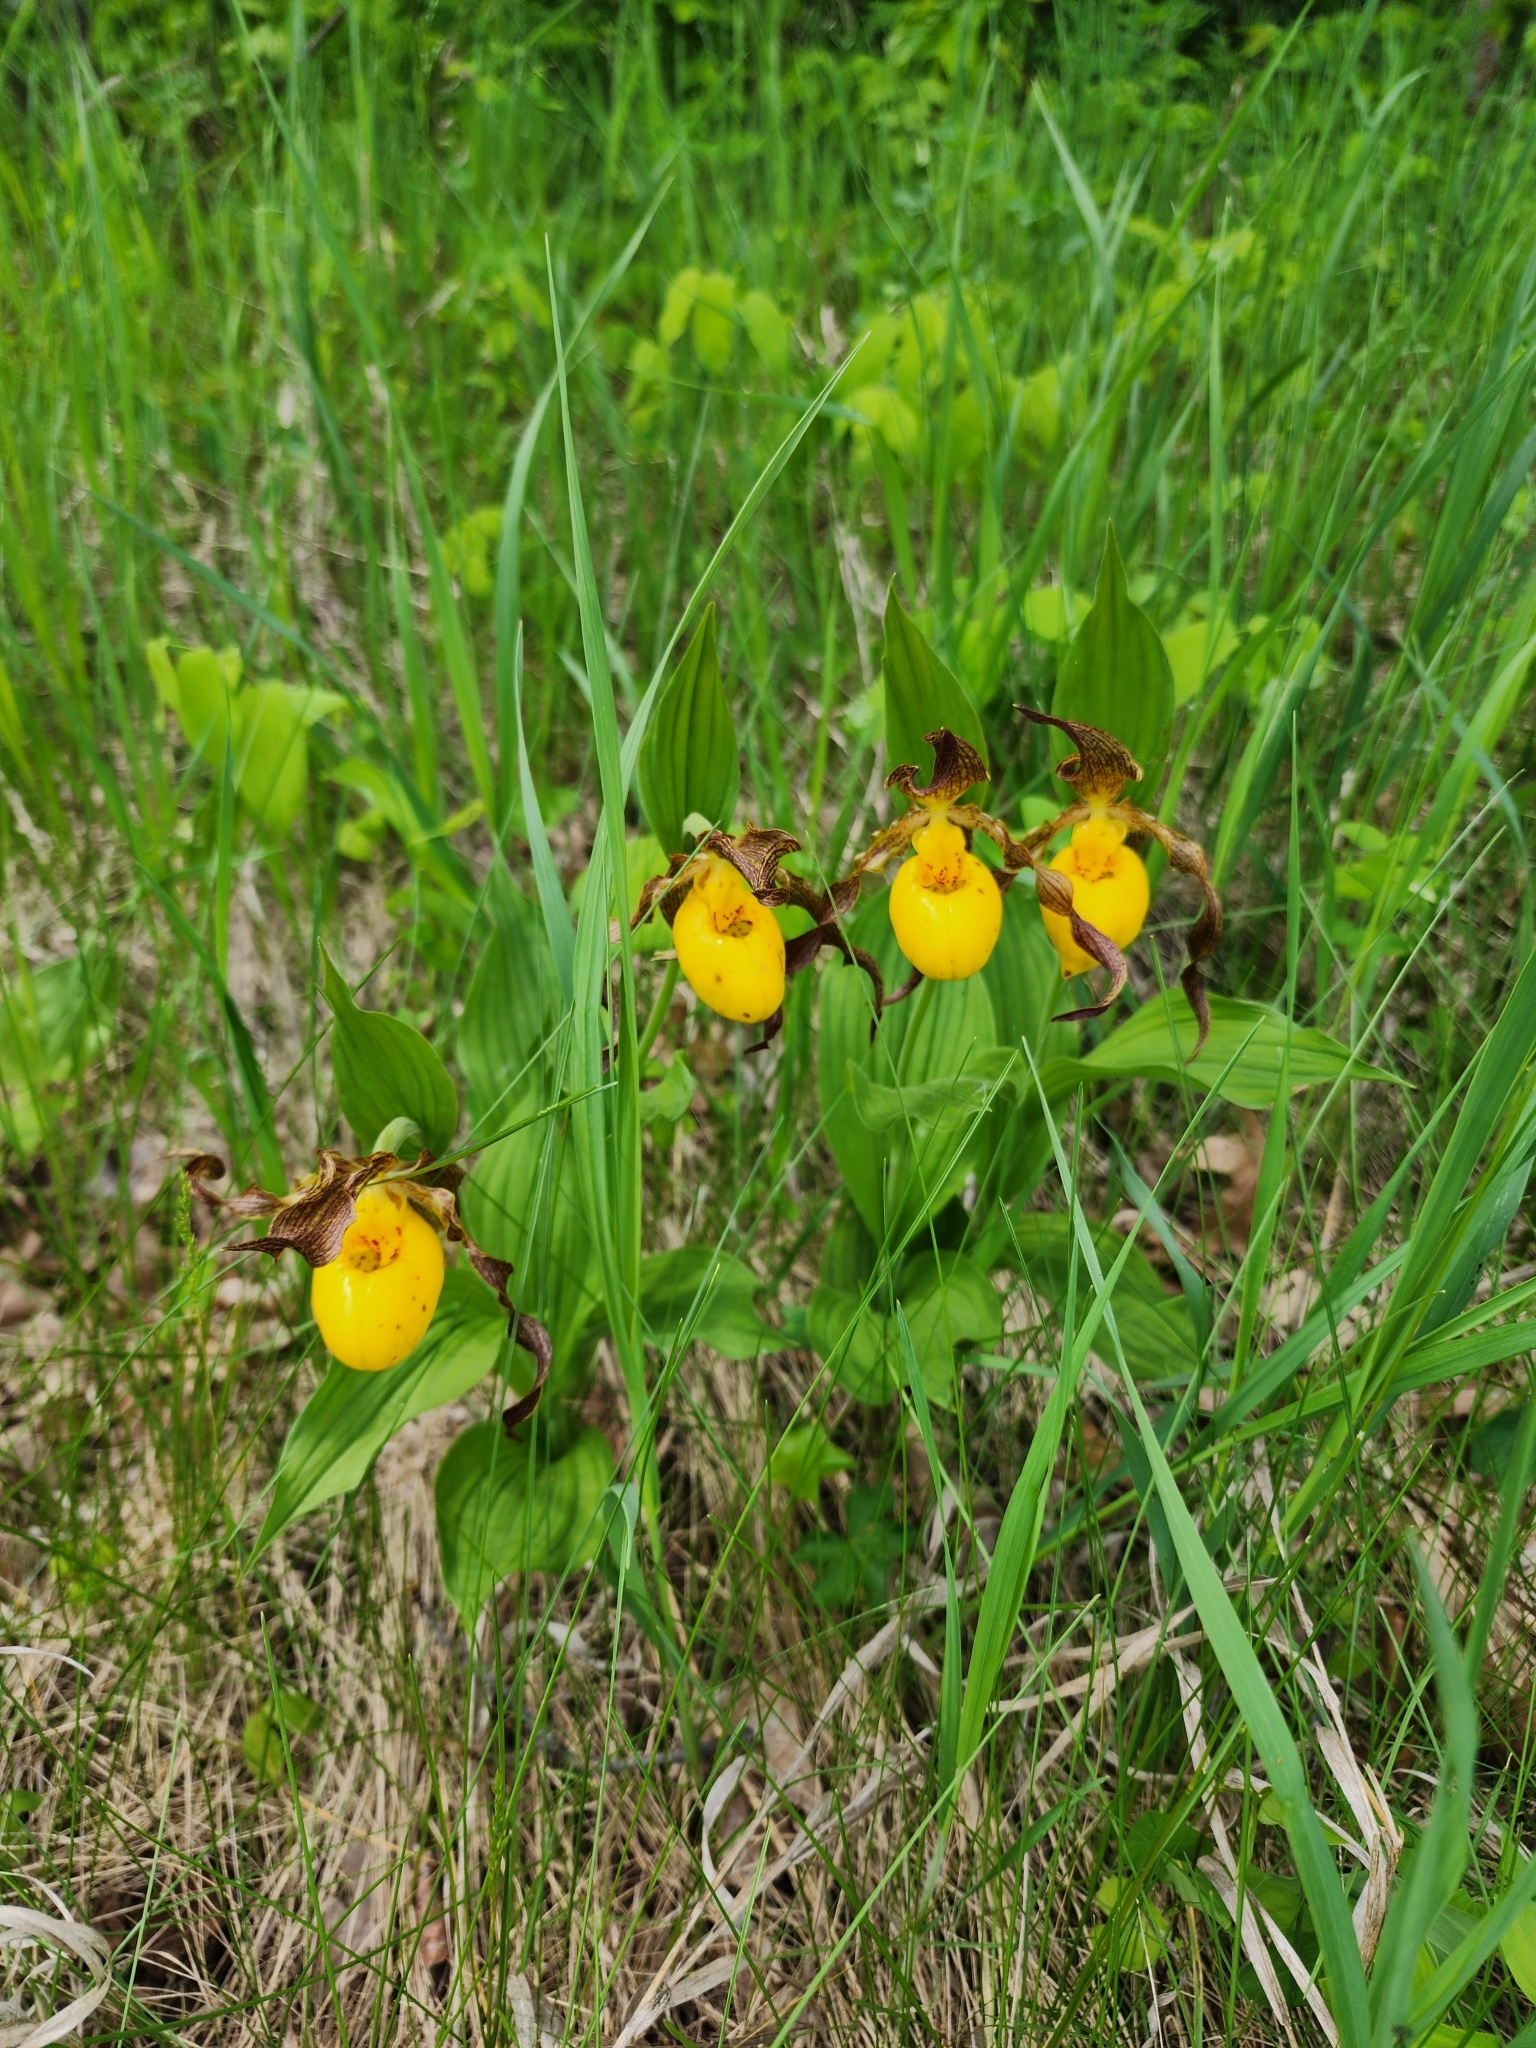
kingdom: Plantae
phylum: Tracheophyta
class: Liliopsida
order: Asparagales
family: Orchidaceae
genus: Cypripedium
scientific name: Cypripedium parviflorum
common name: American yellow lady's-slipper
